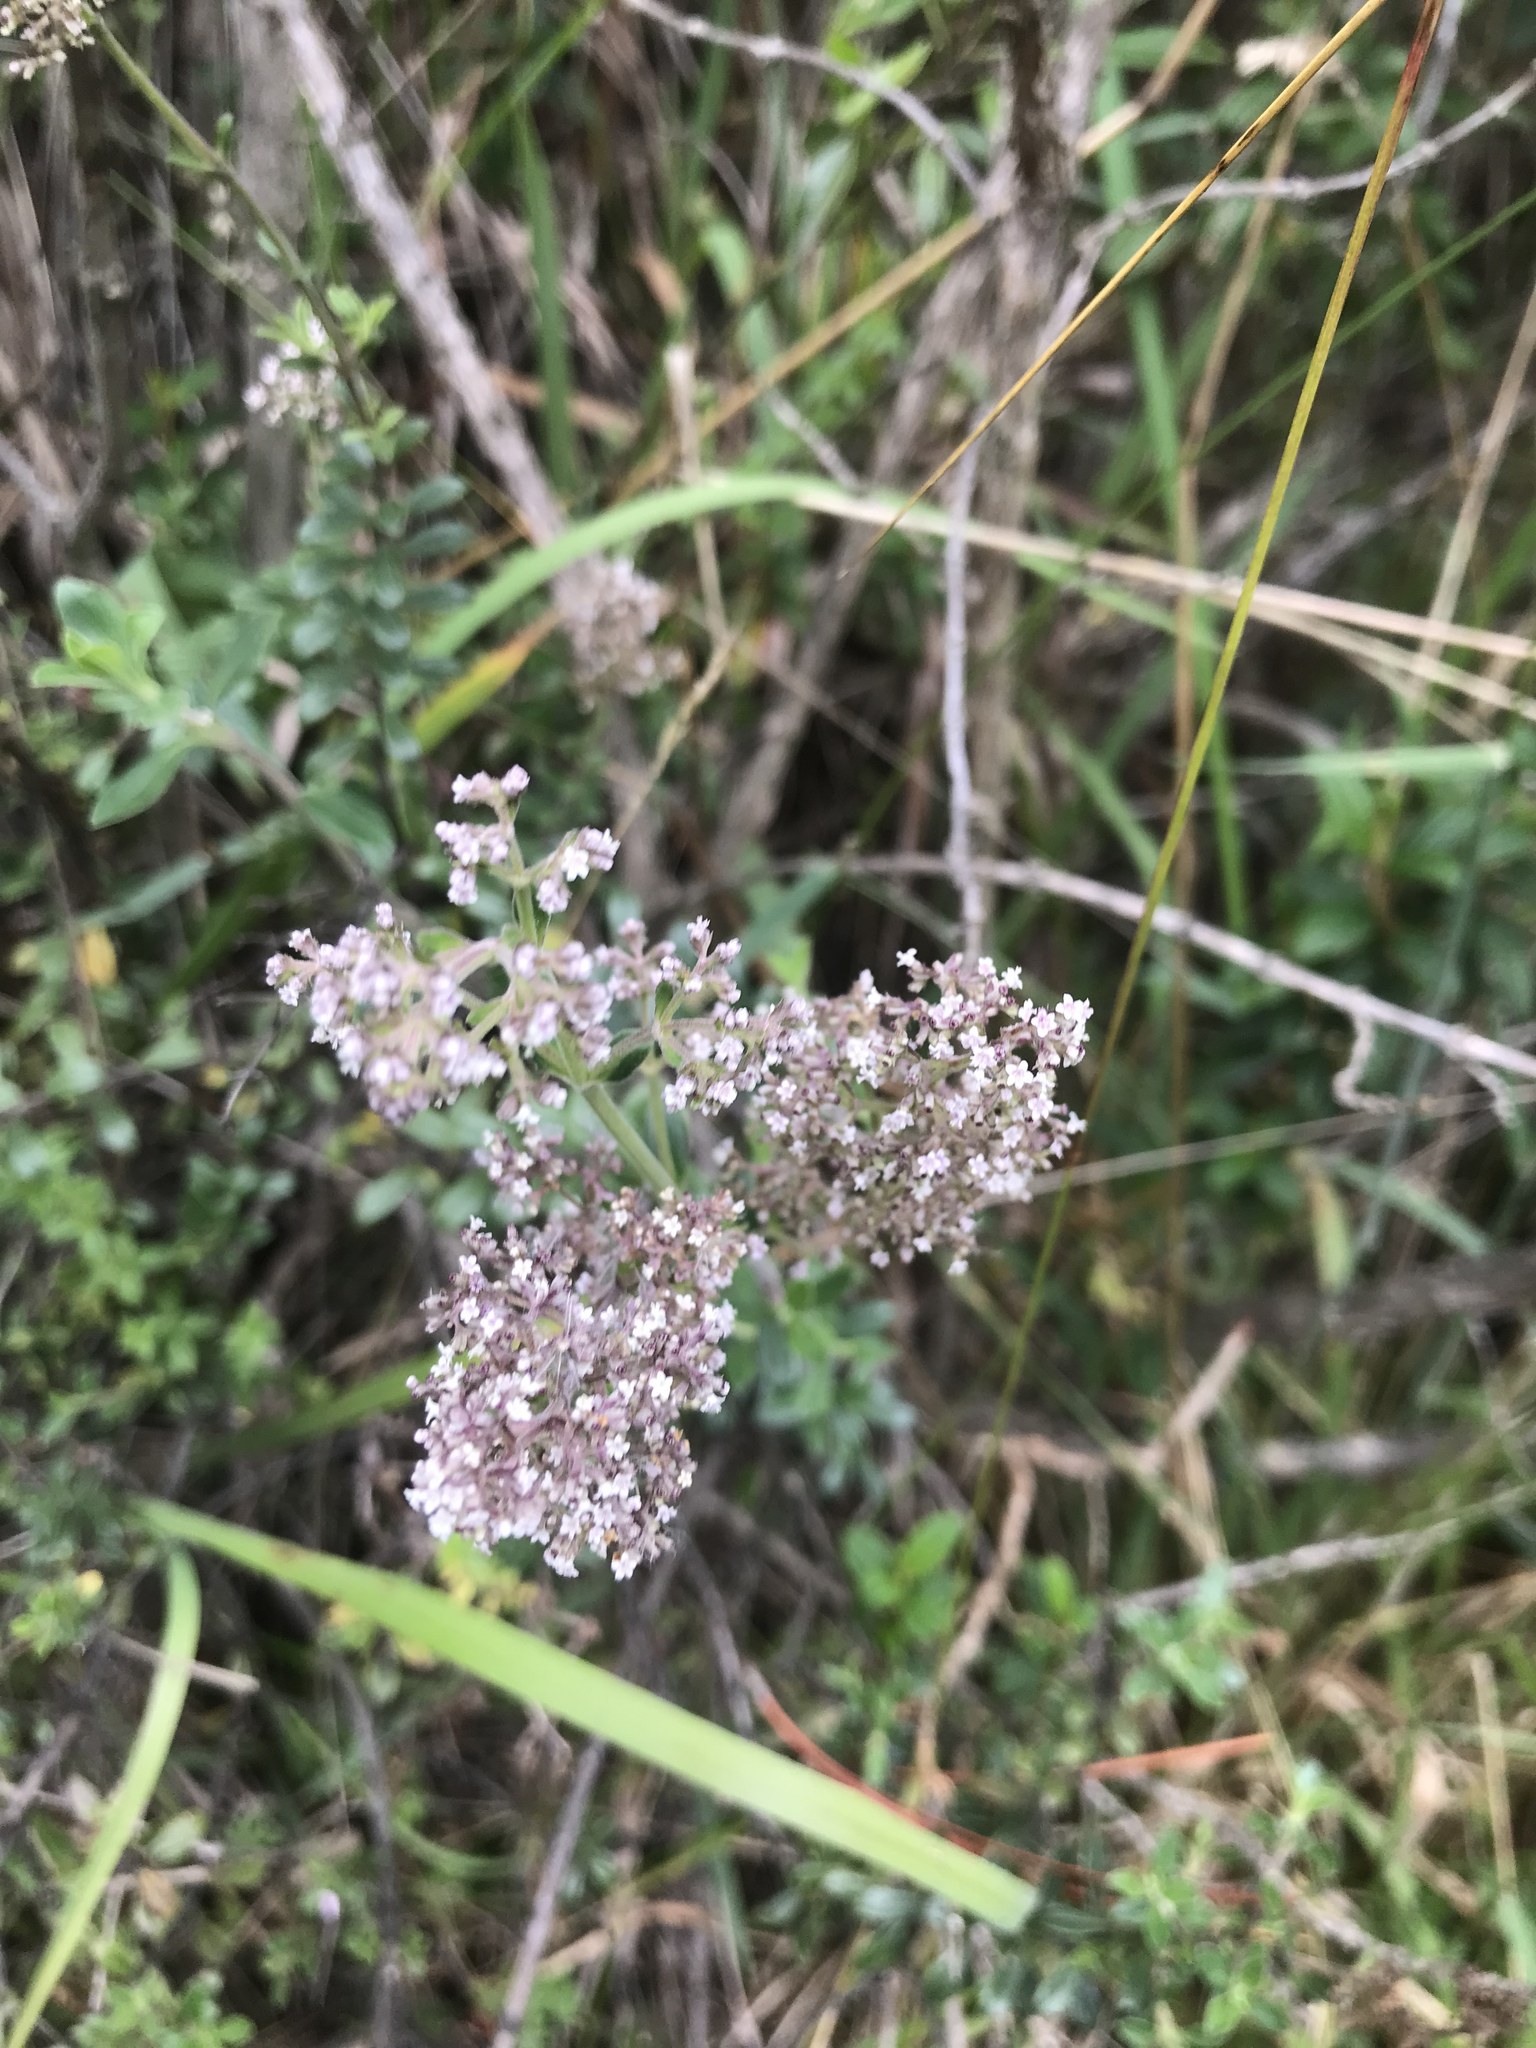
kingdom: Plantae
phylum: Tracheophyta
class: Magnoliopsida
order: Dipsacales
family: Caprifoliaceae
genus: Valeriana
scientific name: Valeriana microphylla
